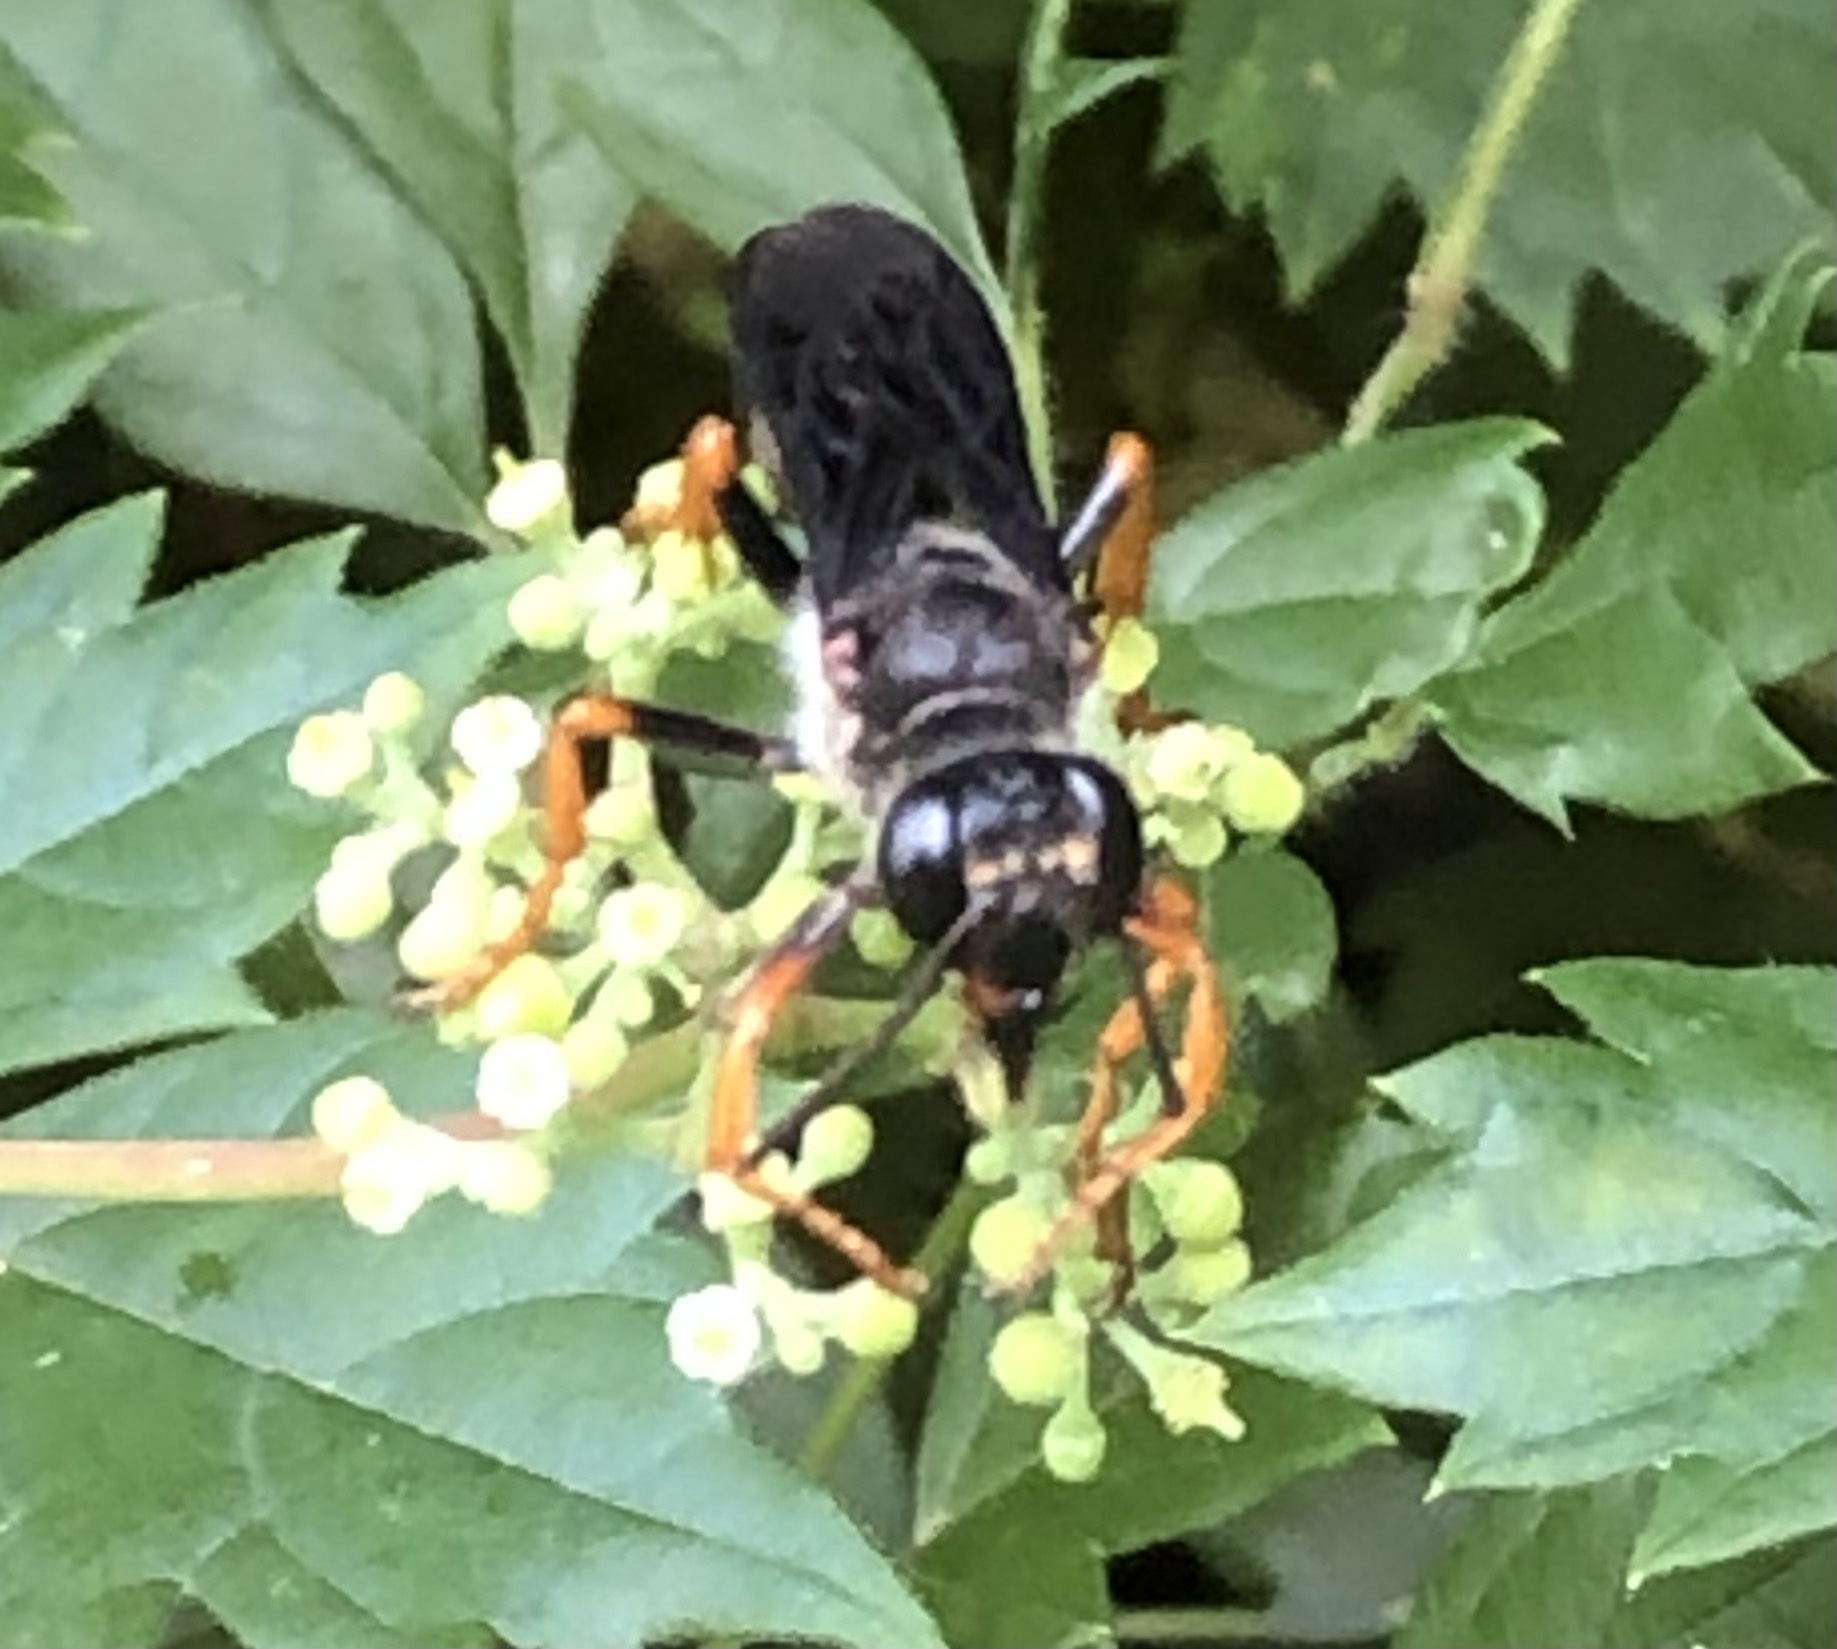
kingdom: Animalia
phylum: Arthropoda
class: Insecta
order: Hymenoptera
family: Sphecidae
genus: Sphex
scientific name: Sphex nudus
